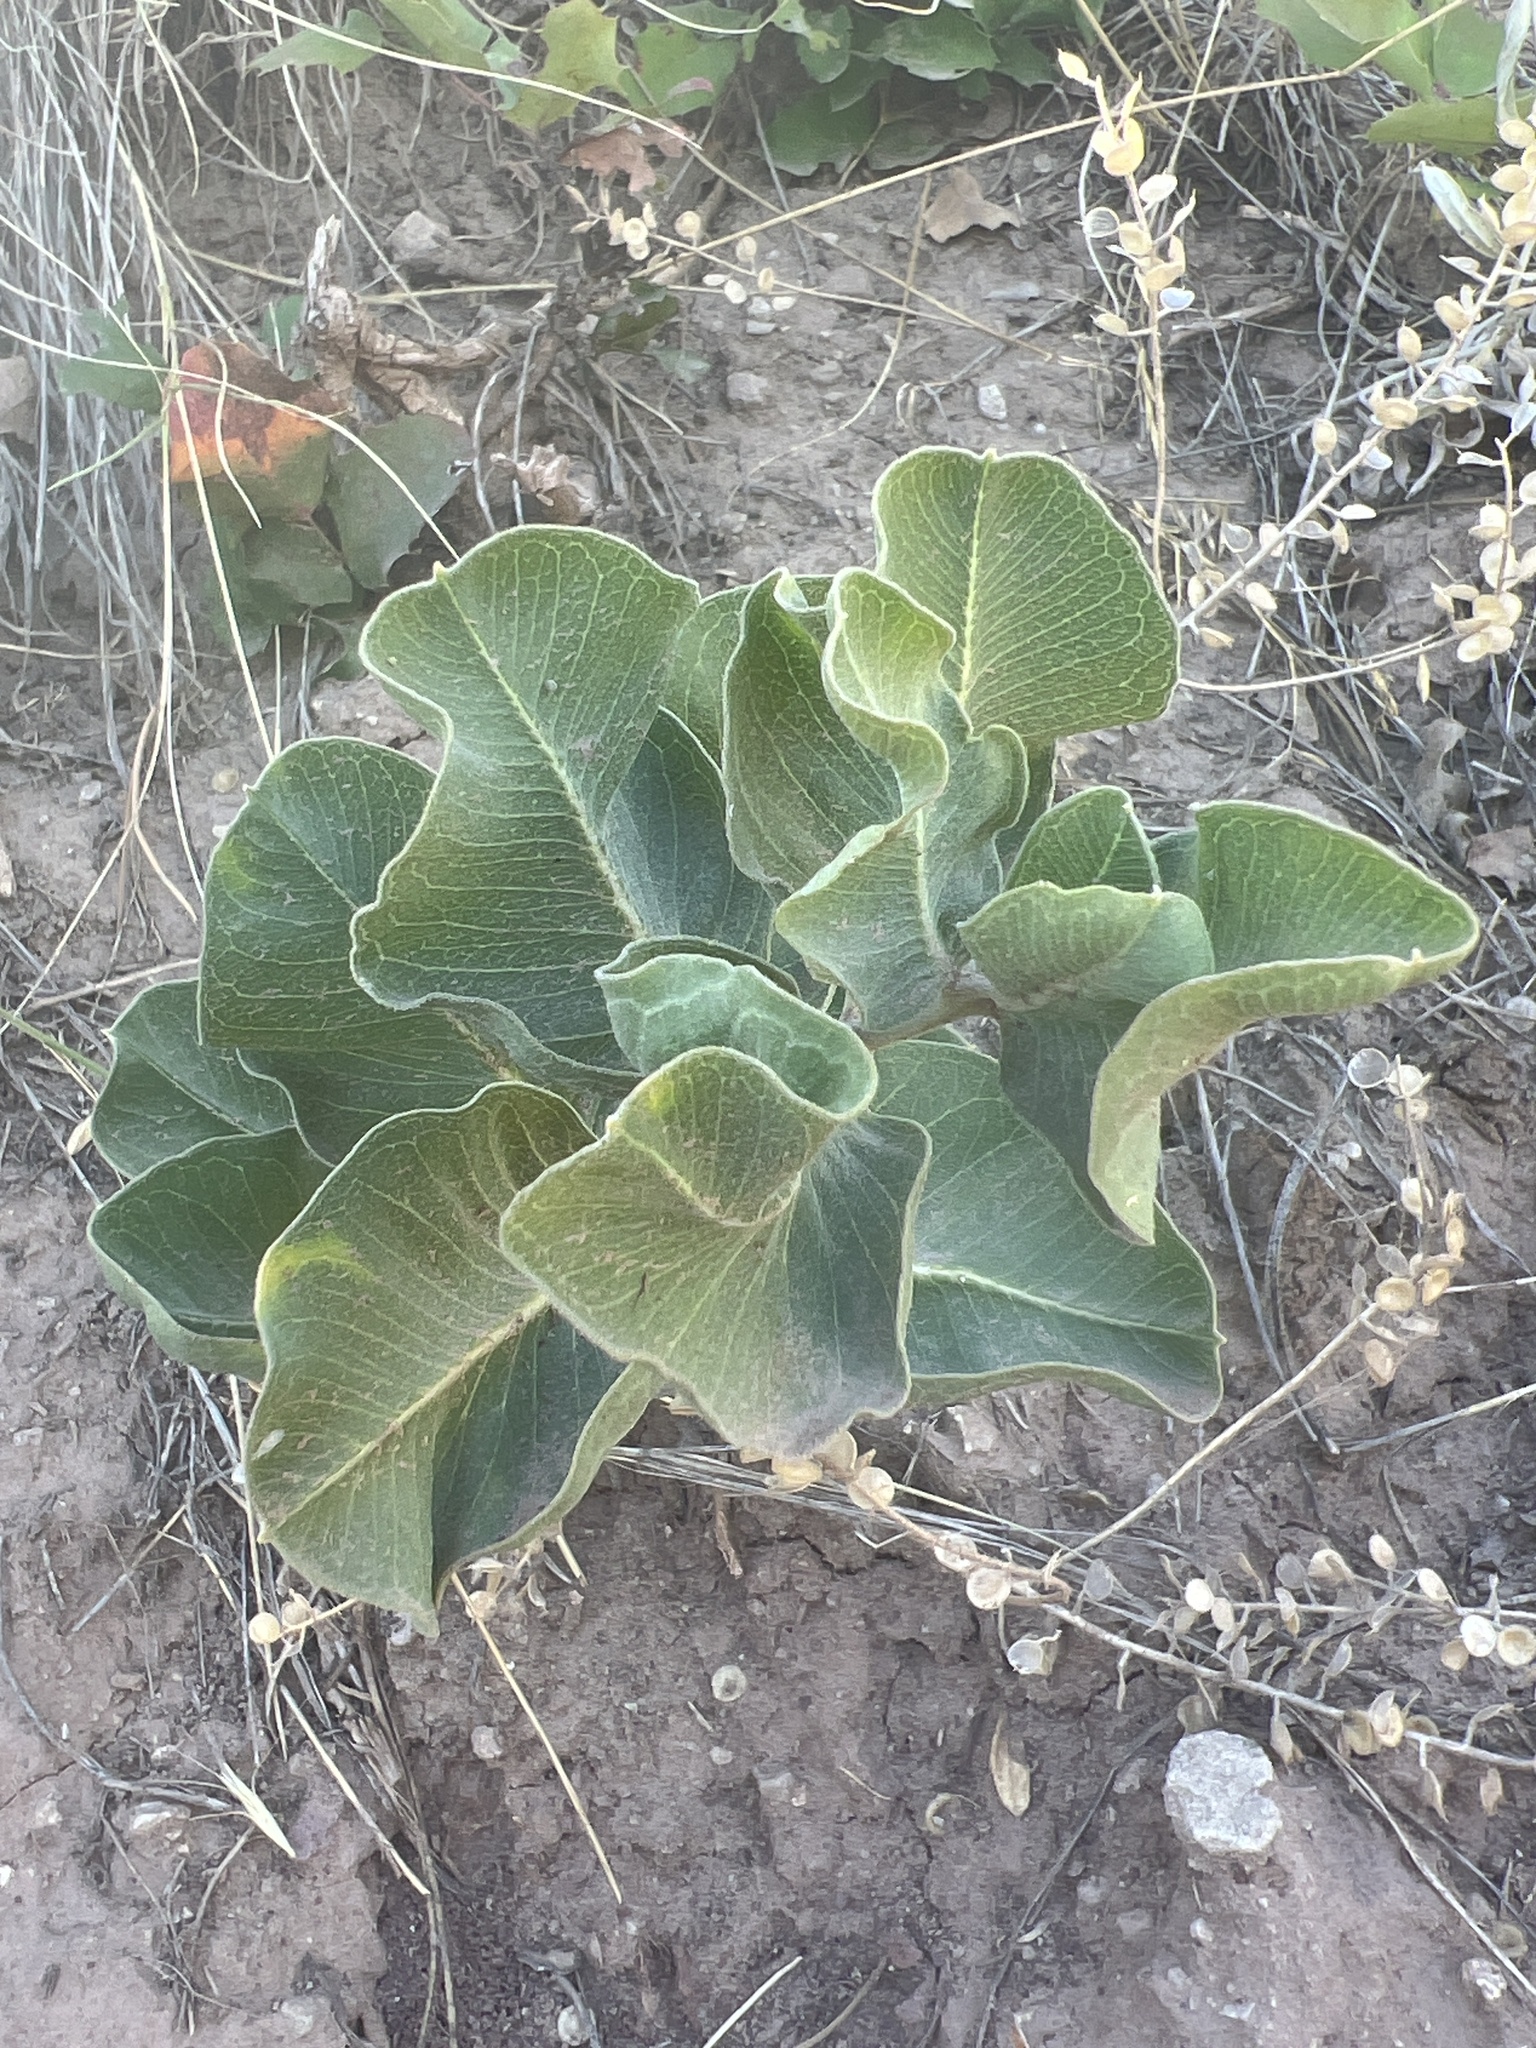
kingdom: Plantae
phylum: Tracheophyta
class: Magnoliopsida
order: Gentianales
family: Apocynaceae
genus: Asclepias
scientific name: Asclepias latifolia
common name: Broadleaf milkweed
